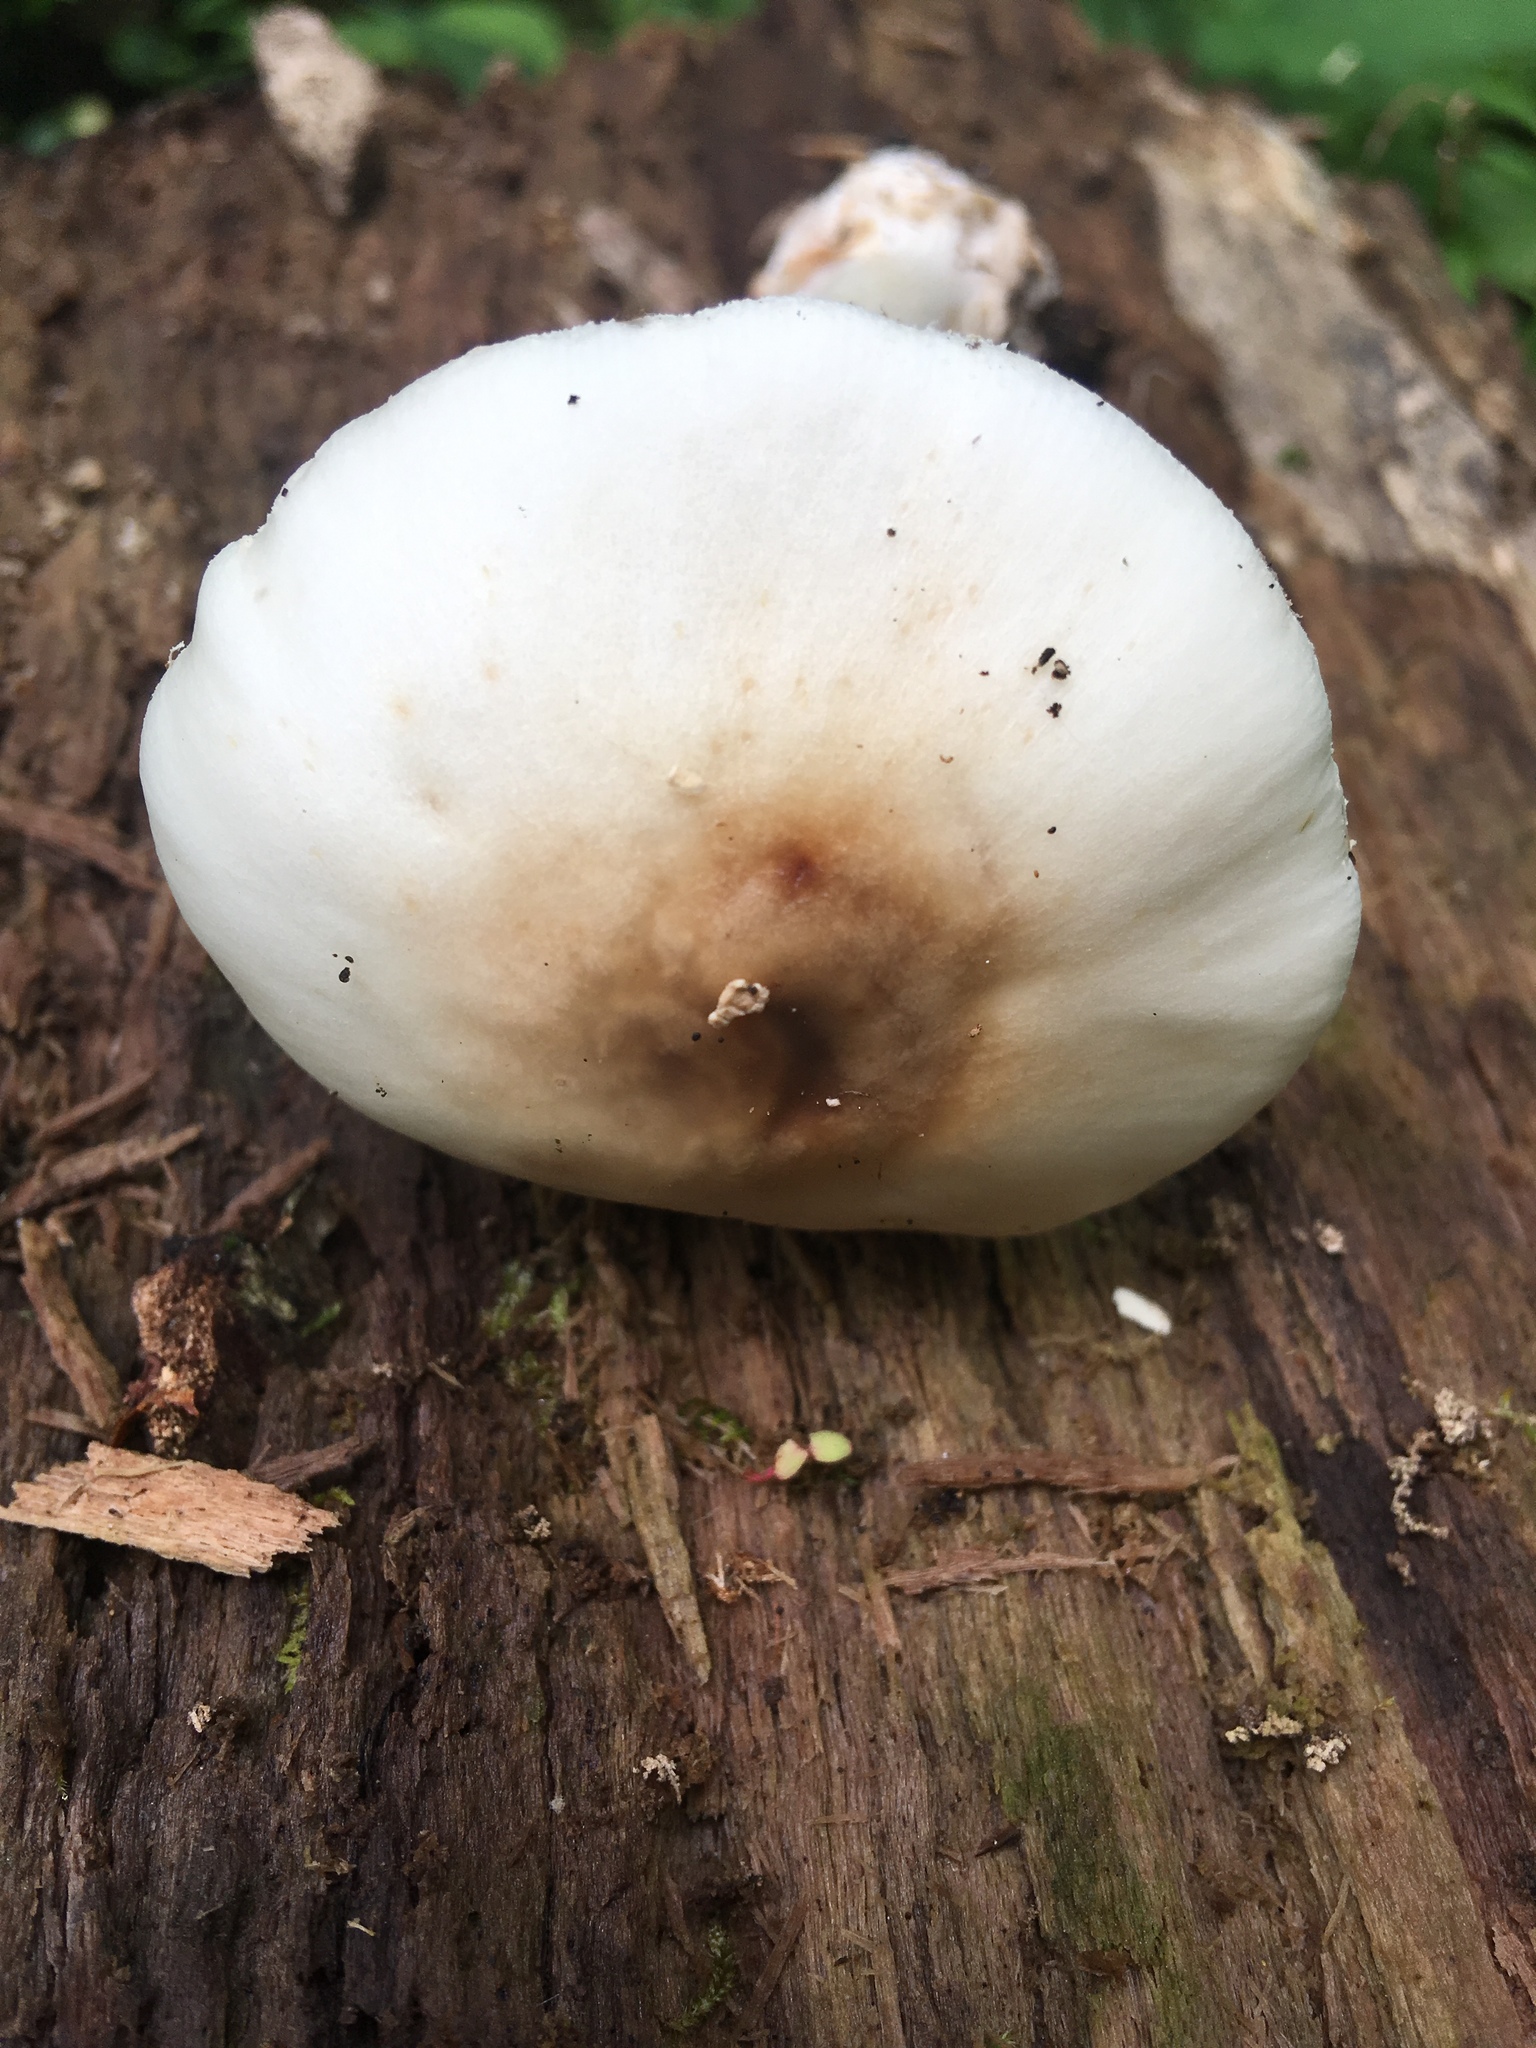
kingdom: Fungi
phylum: Basidiomycota
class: Agaricomycetes
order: Agaricales
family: Amanitaceae
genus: Amanita
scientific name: Amanita brunnescens
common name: Brown american star-footed amanita
